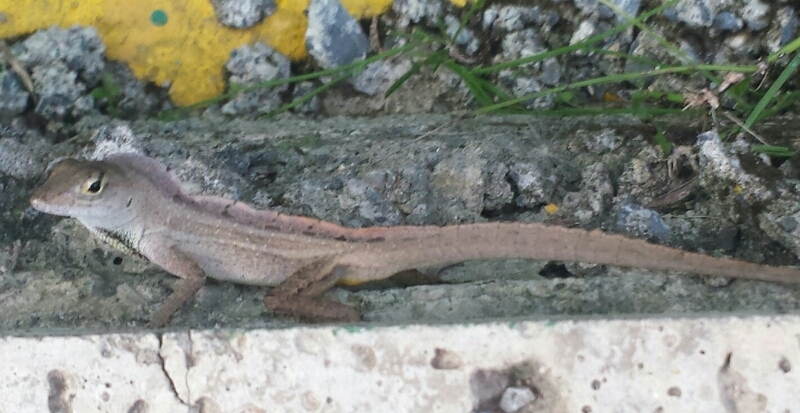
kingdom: Animalia
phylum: Chordata
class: Squamata
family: Dactyloidae
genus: Anolis
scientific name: Anolis sagrei
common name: Brown anole
